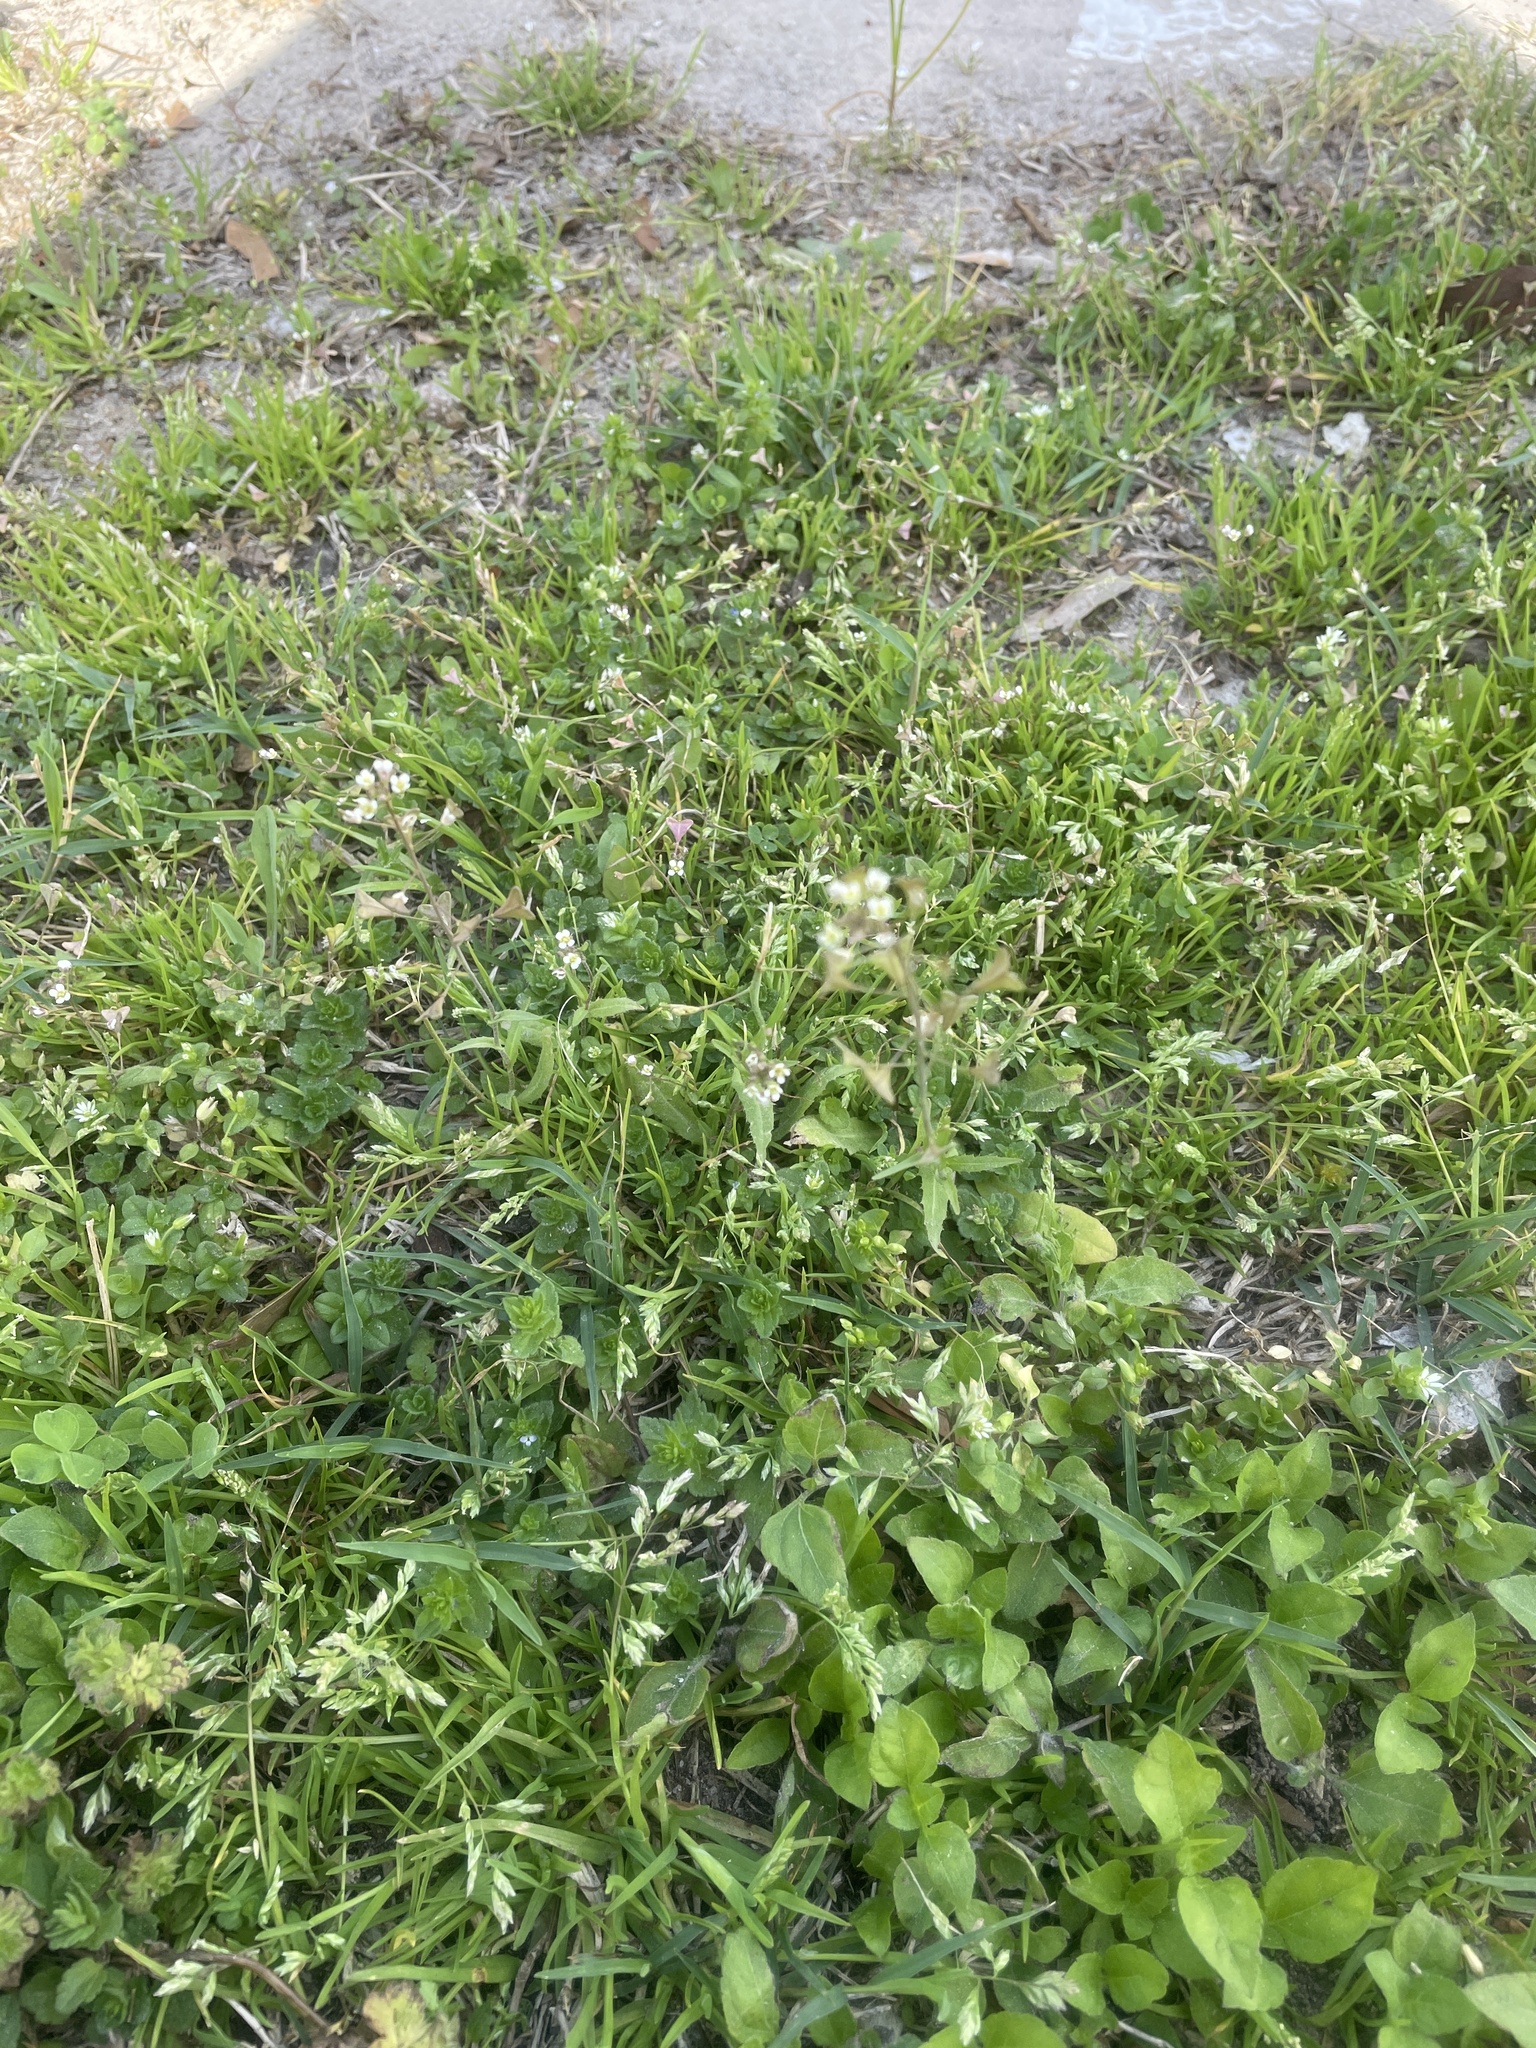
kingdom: Plantae
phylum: Tracheophyta
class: Magnoliopsida
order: Brassicales
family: Brassicaceae
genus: Capsella
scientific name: Capsella bursa-pastoris
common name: Shepherd's purse
